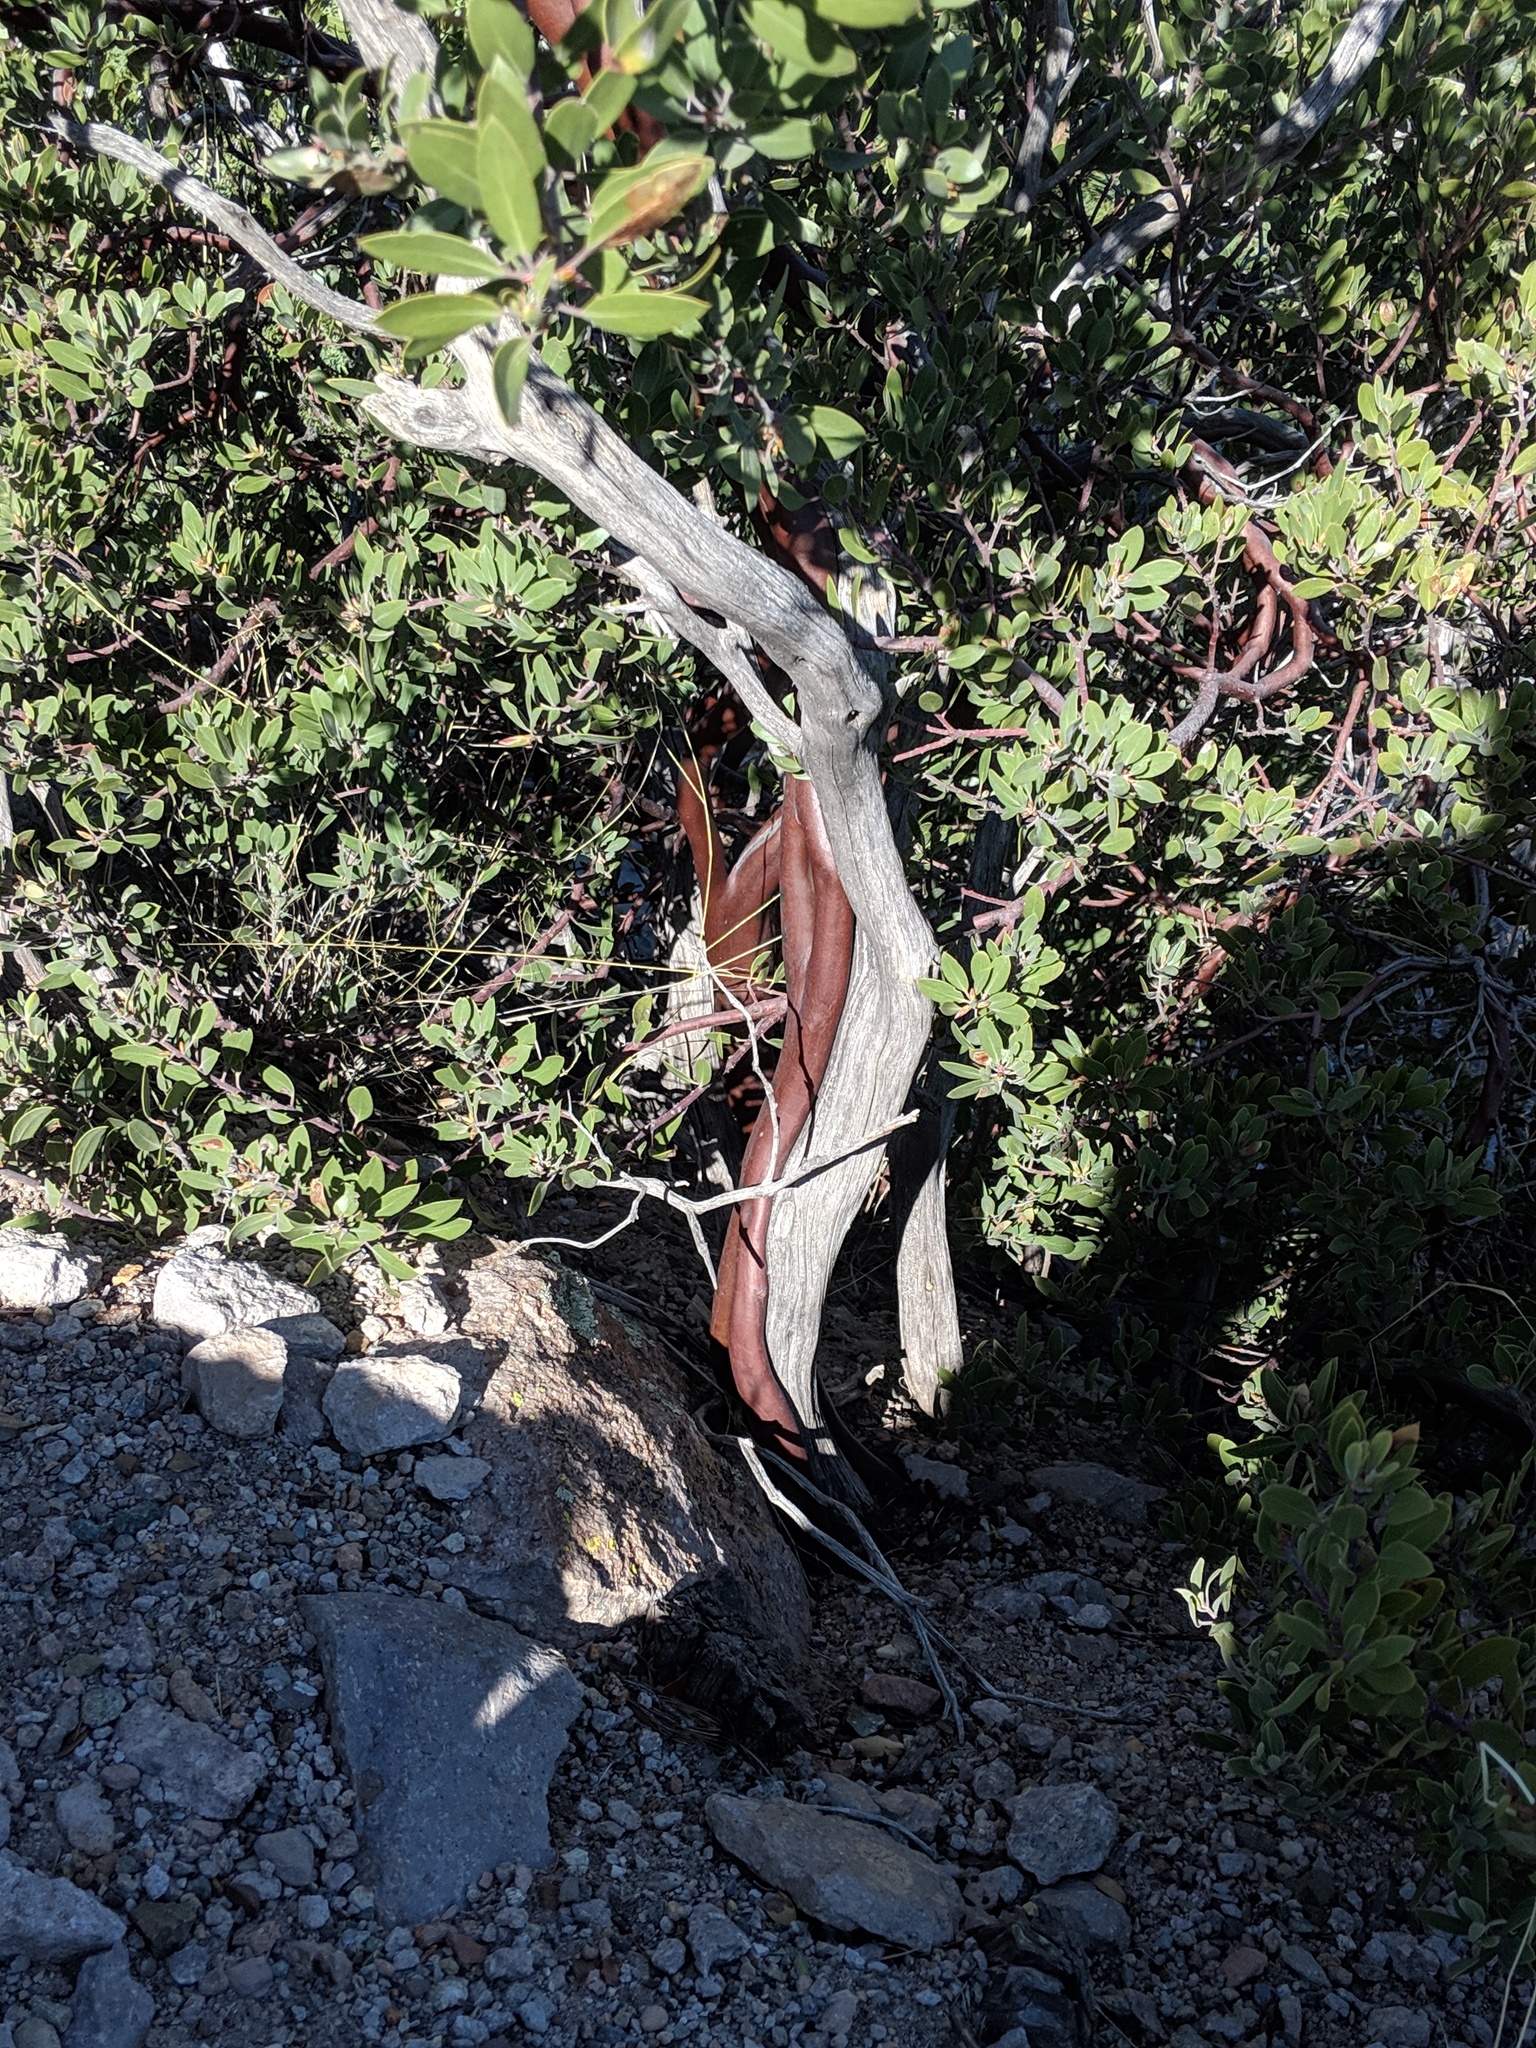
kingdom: Plantae
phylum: Tracheophyta
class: Magnoliopsida
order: Ericales
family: Ericaceae
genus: Arctostaphylos
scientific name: Arctostaphylos pungens
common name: Mexican manzanita
